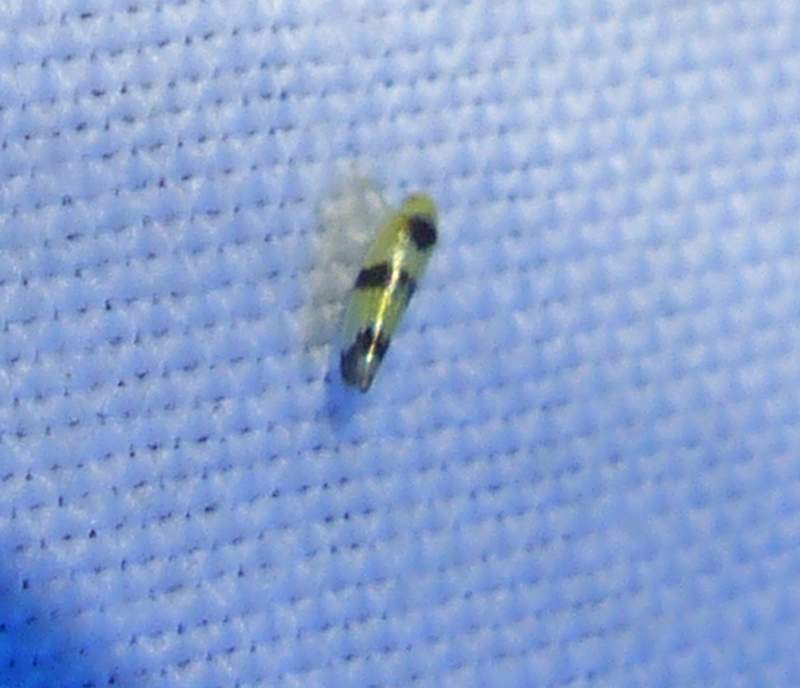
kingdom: Animalia
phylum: Arthropoda
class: Insecta
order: Hemiptera
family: Cicadellidae
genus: Empoa
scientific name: Empoa venusta
